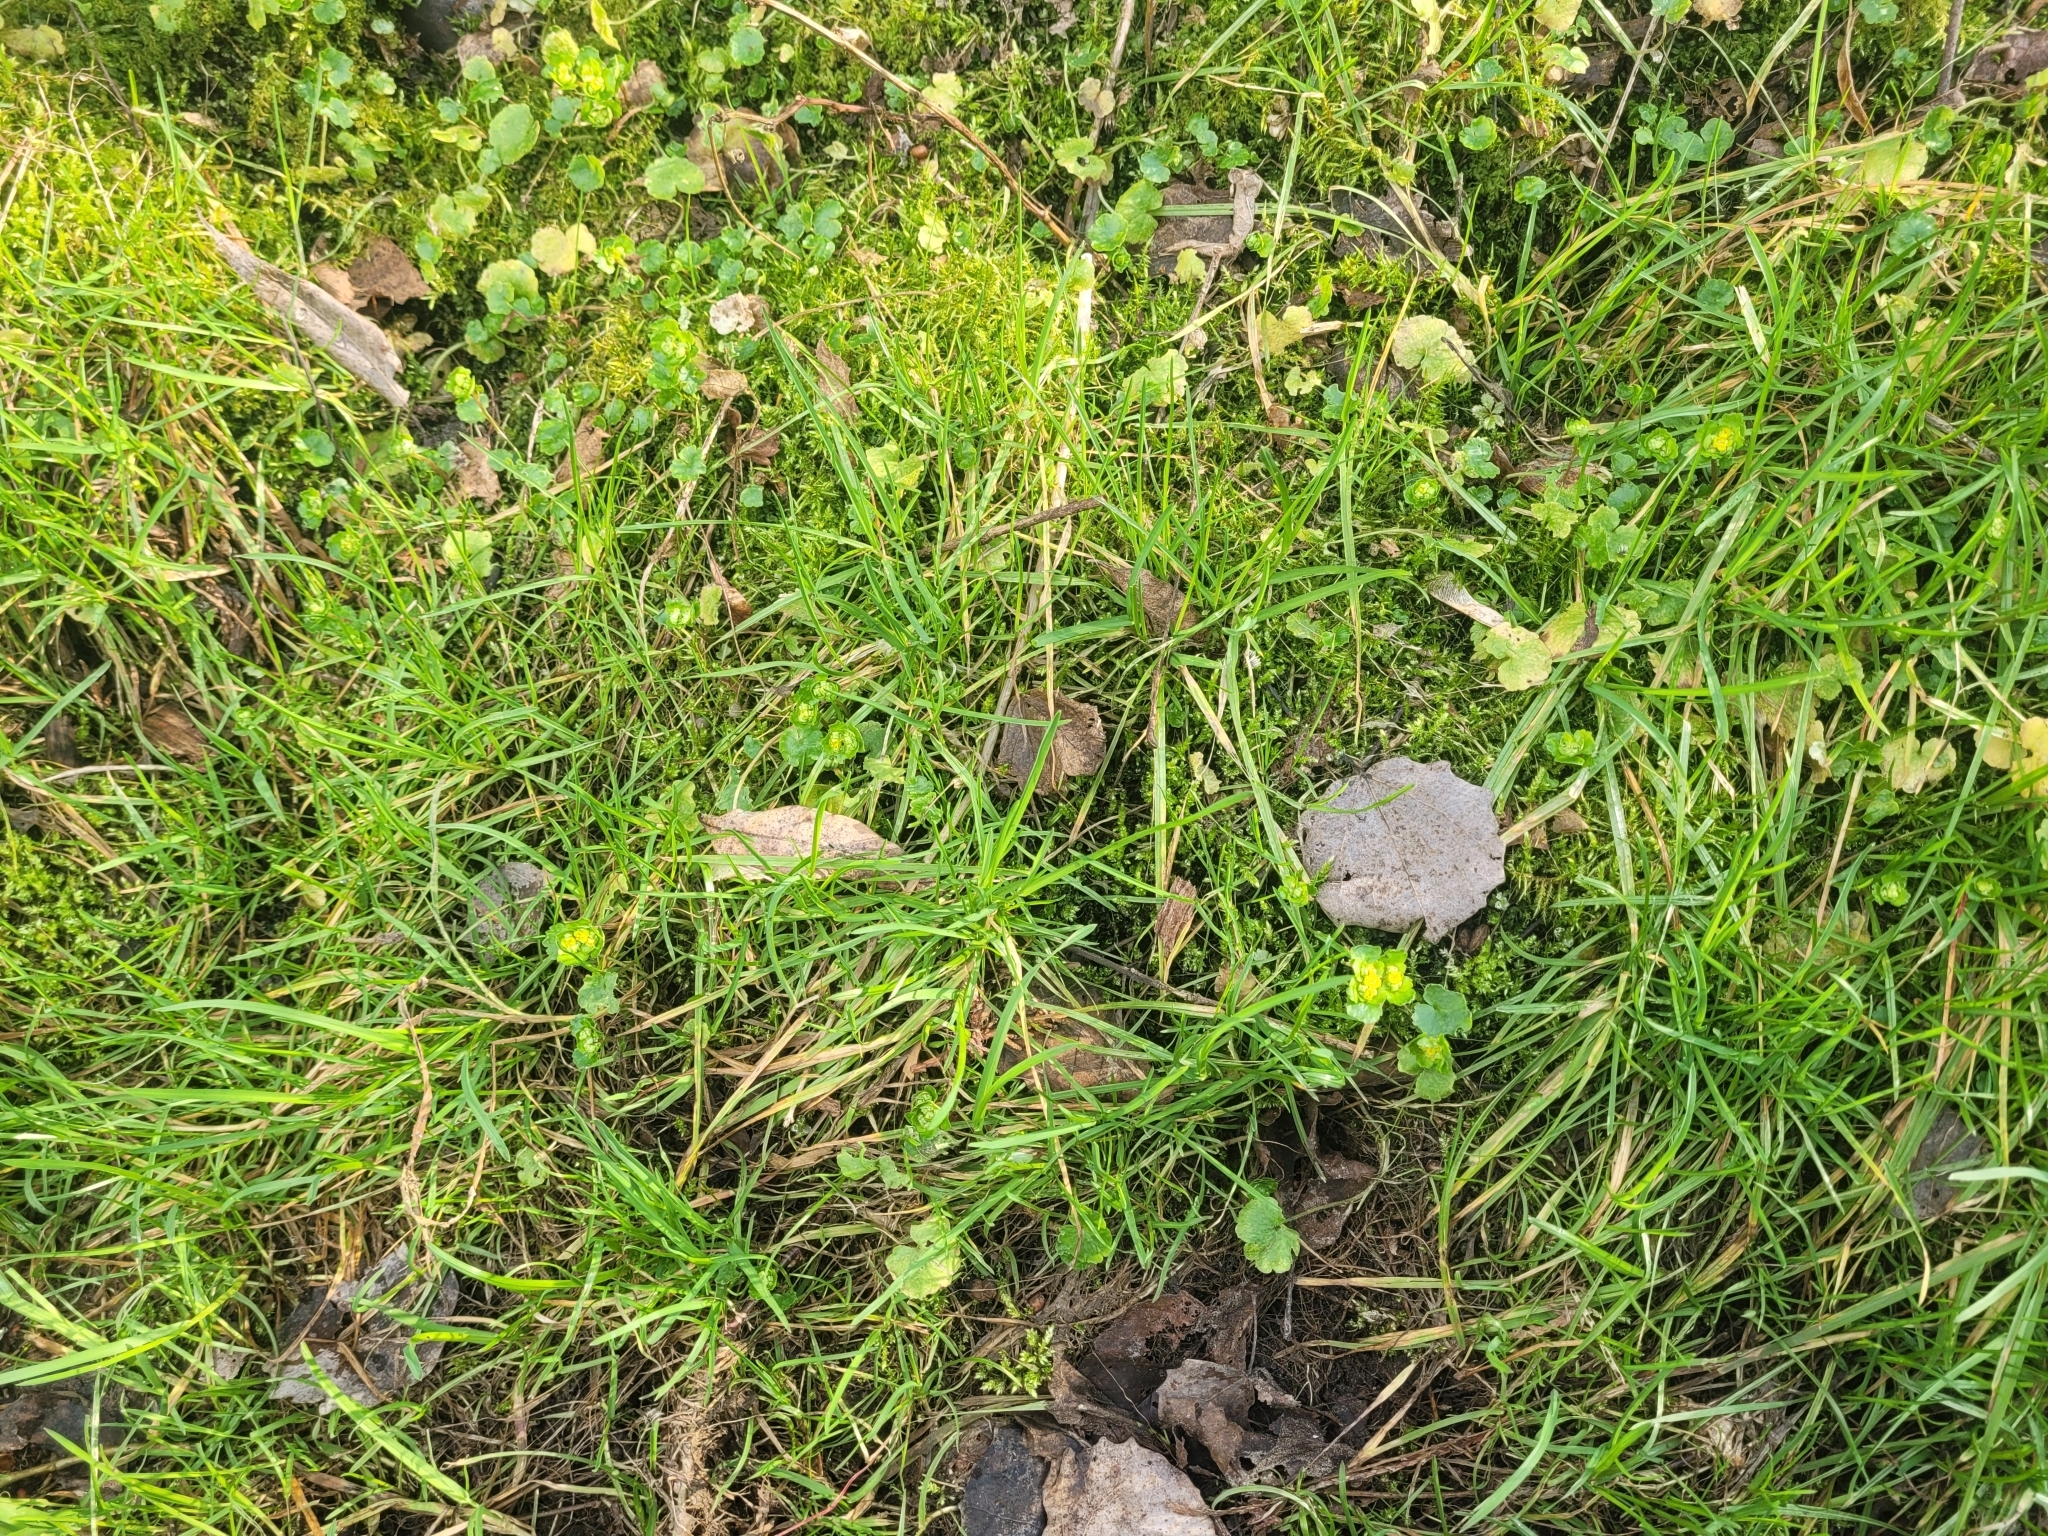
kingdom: Plantae
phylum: Tracheophyta
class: Magnoliopsida
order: Saxifragales
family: Saxifragaceae
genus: Chrysosplenium
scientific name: Chrysosplenium alternifolium
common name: Alternate-leaved golden-saxifrage
